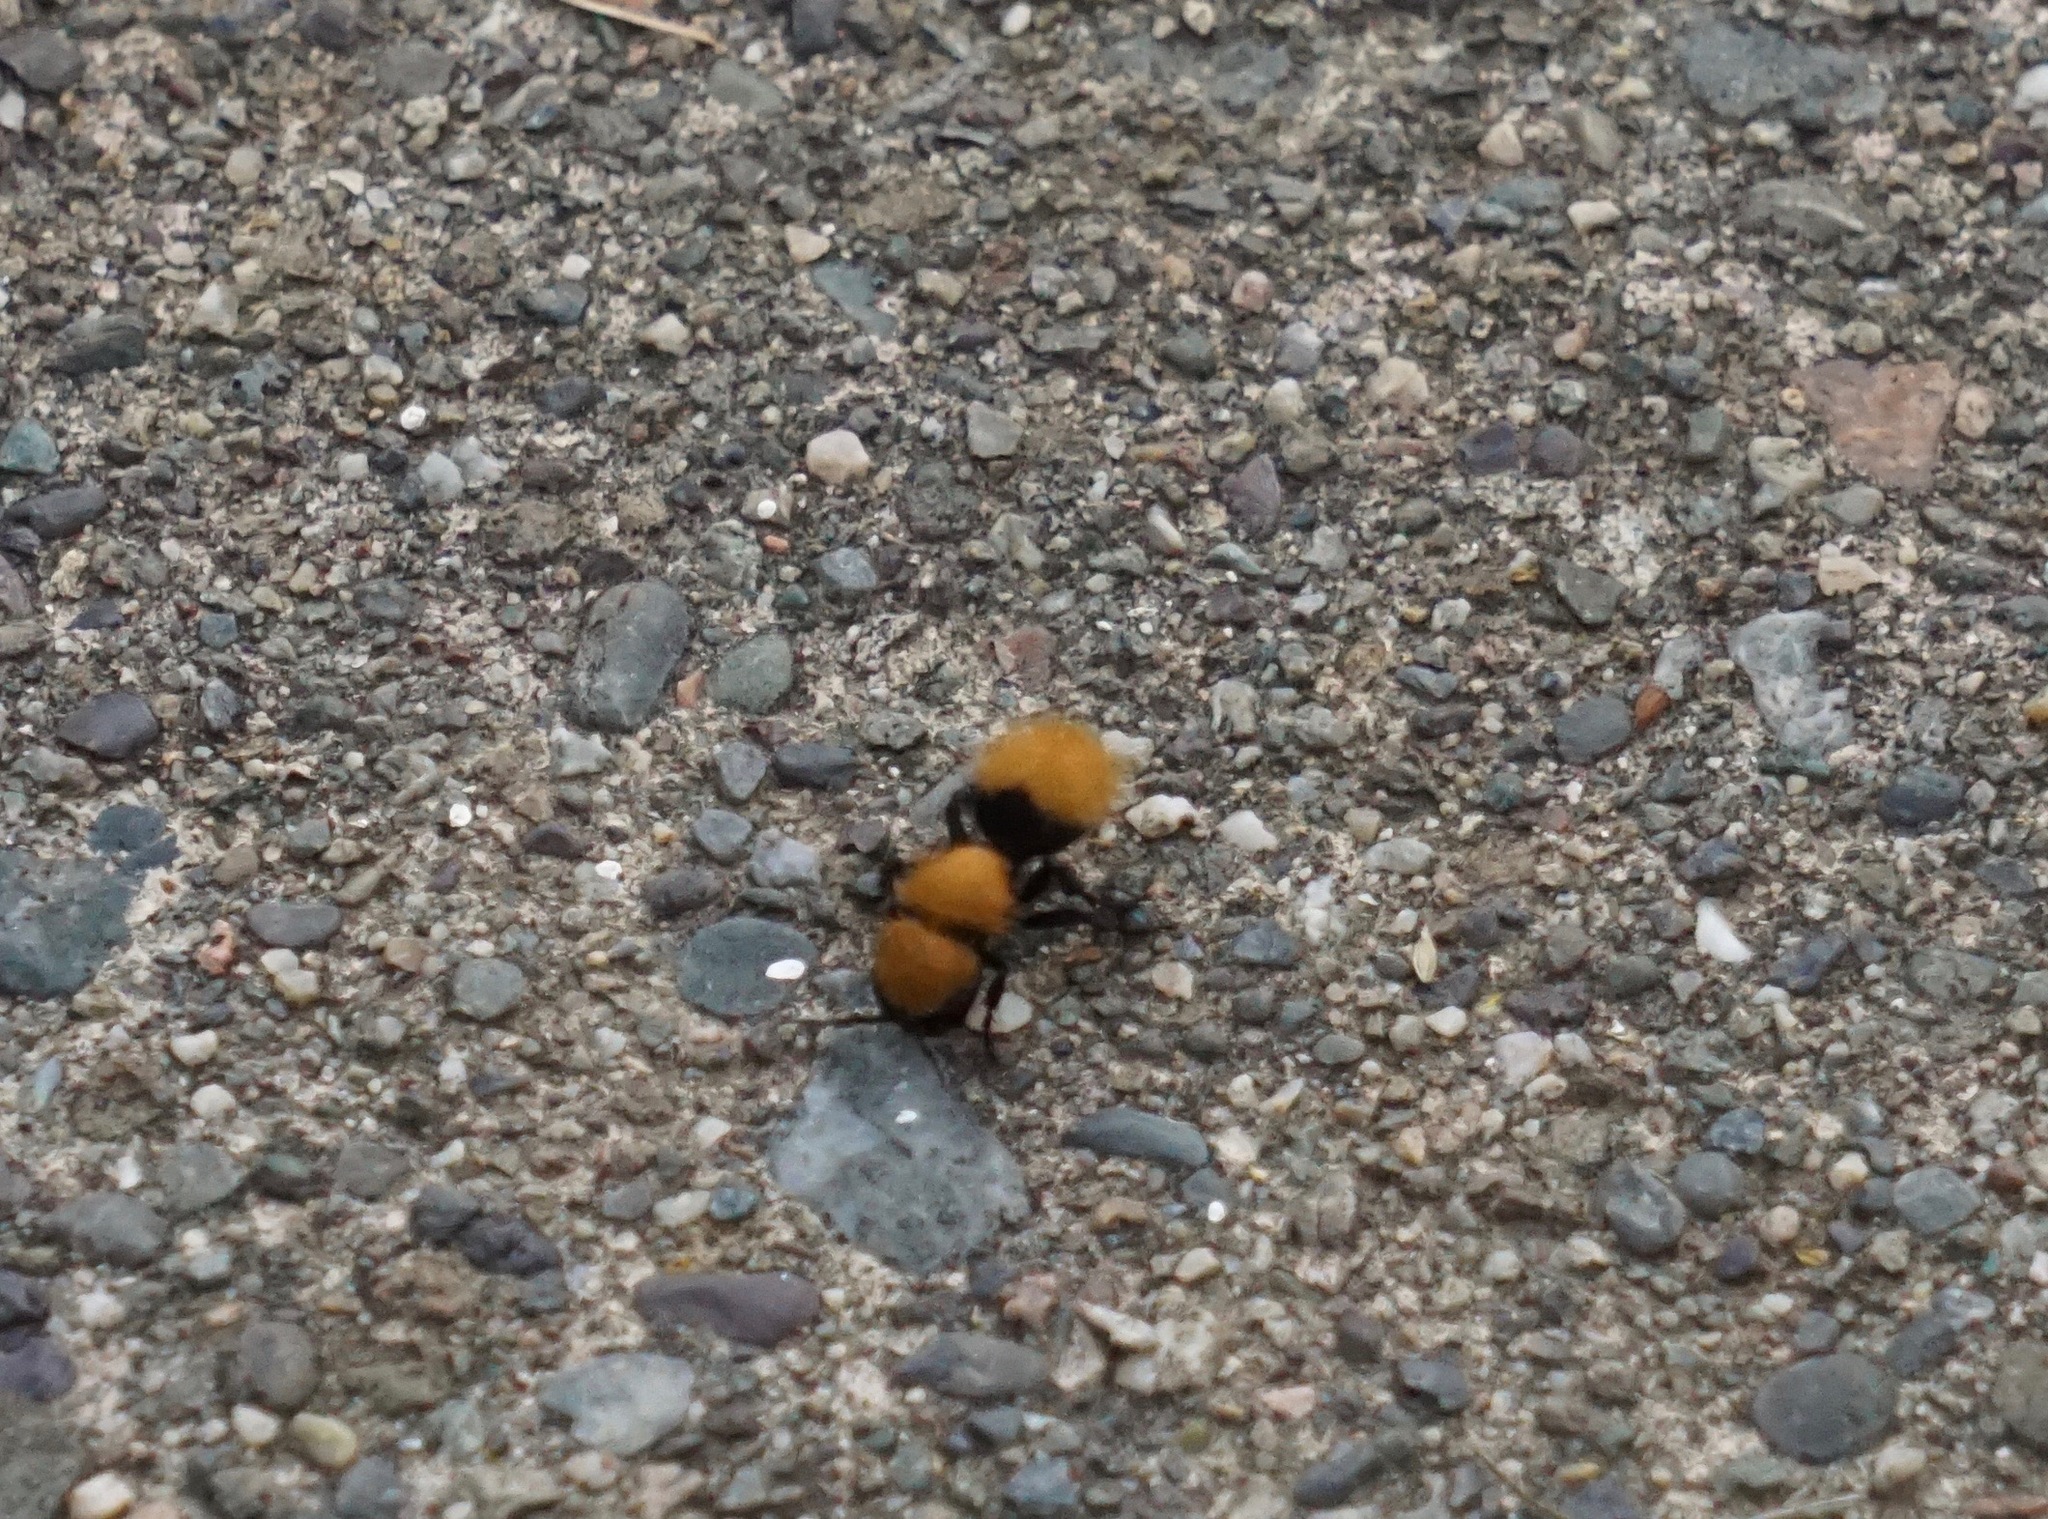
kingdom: Animalia
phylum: Arthropoda
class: Insecta
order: Hymenoptera
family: Mutillidae
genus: Dasymutilla
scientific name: Dasymutilla
